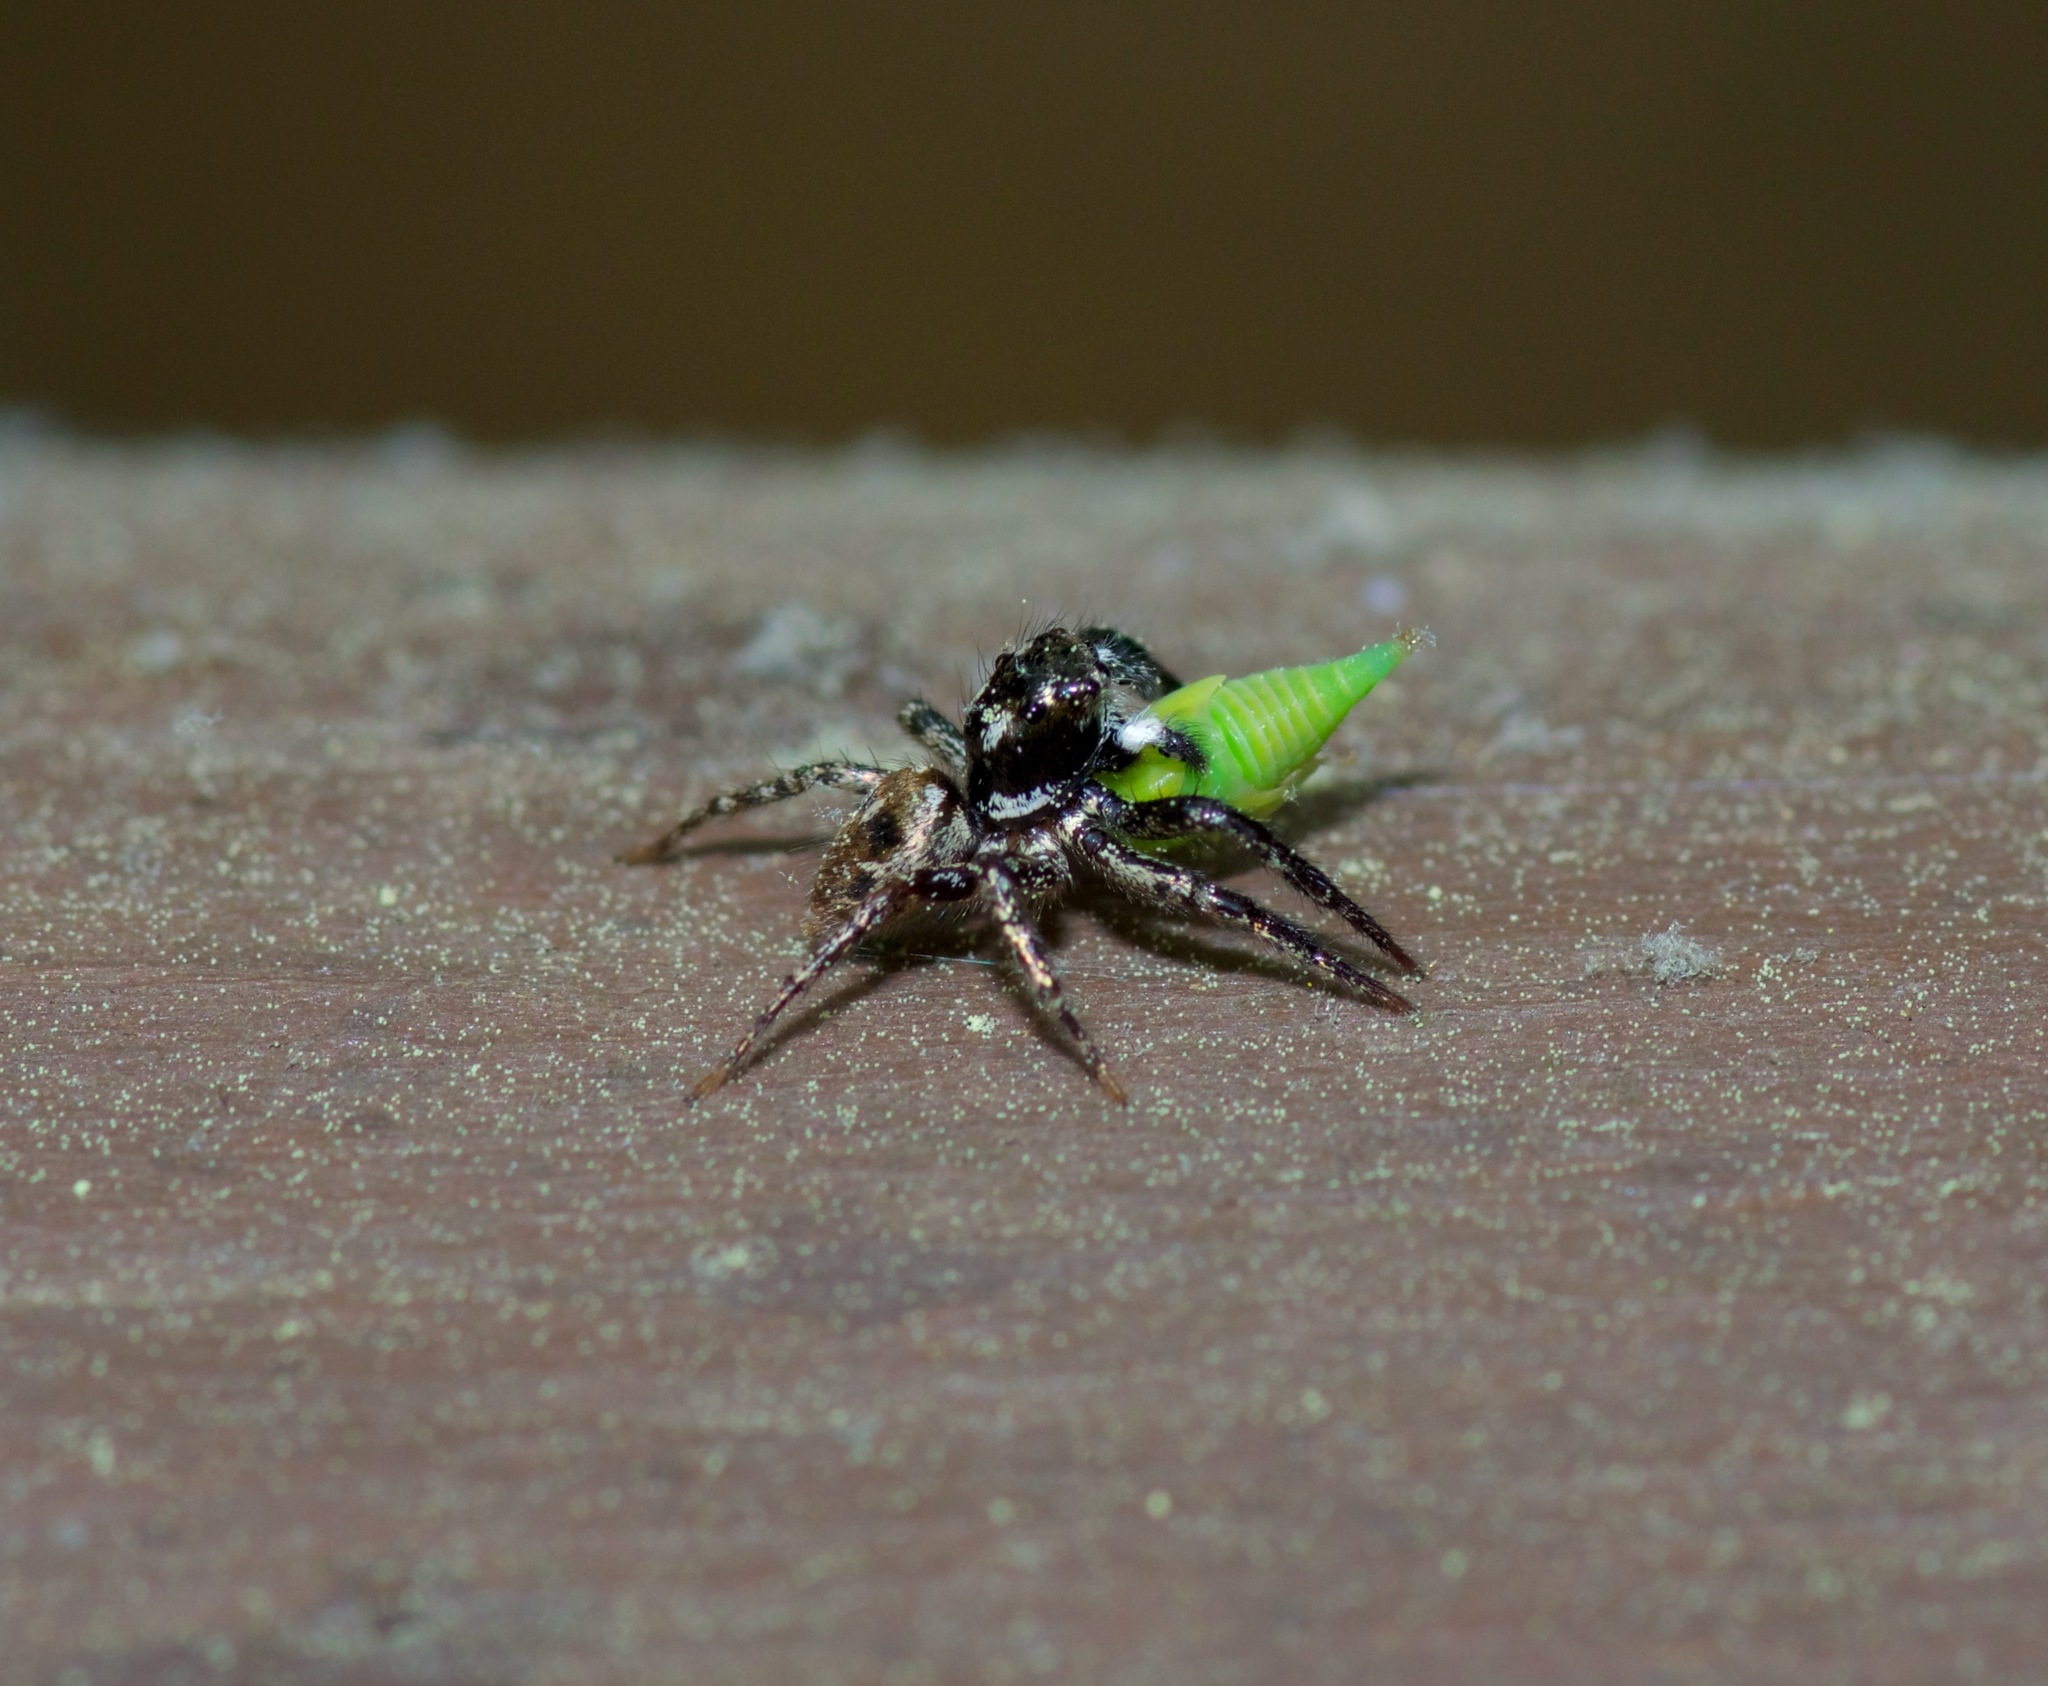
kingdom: Animalia
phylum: Arthropoda
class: Arachnida
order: Araneae
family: Salticidae
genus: Anasaitis
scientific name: Anasaitis canosa
